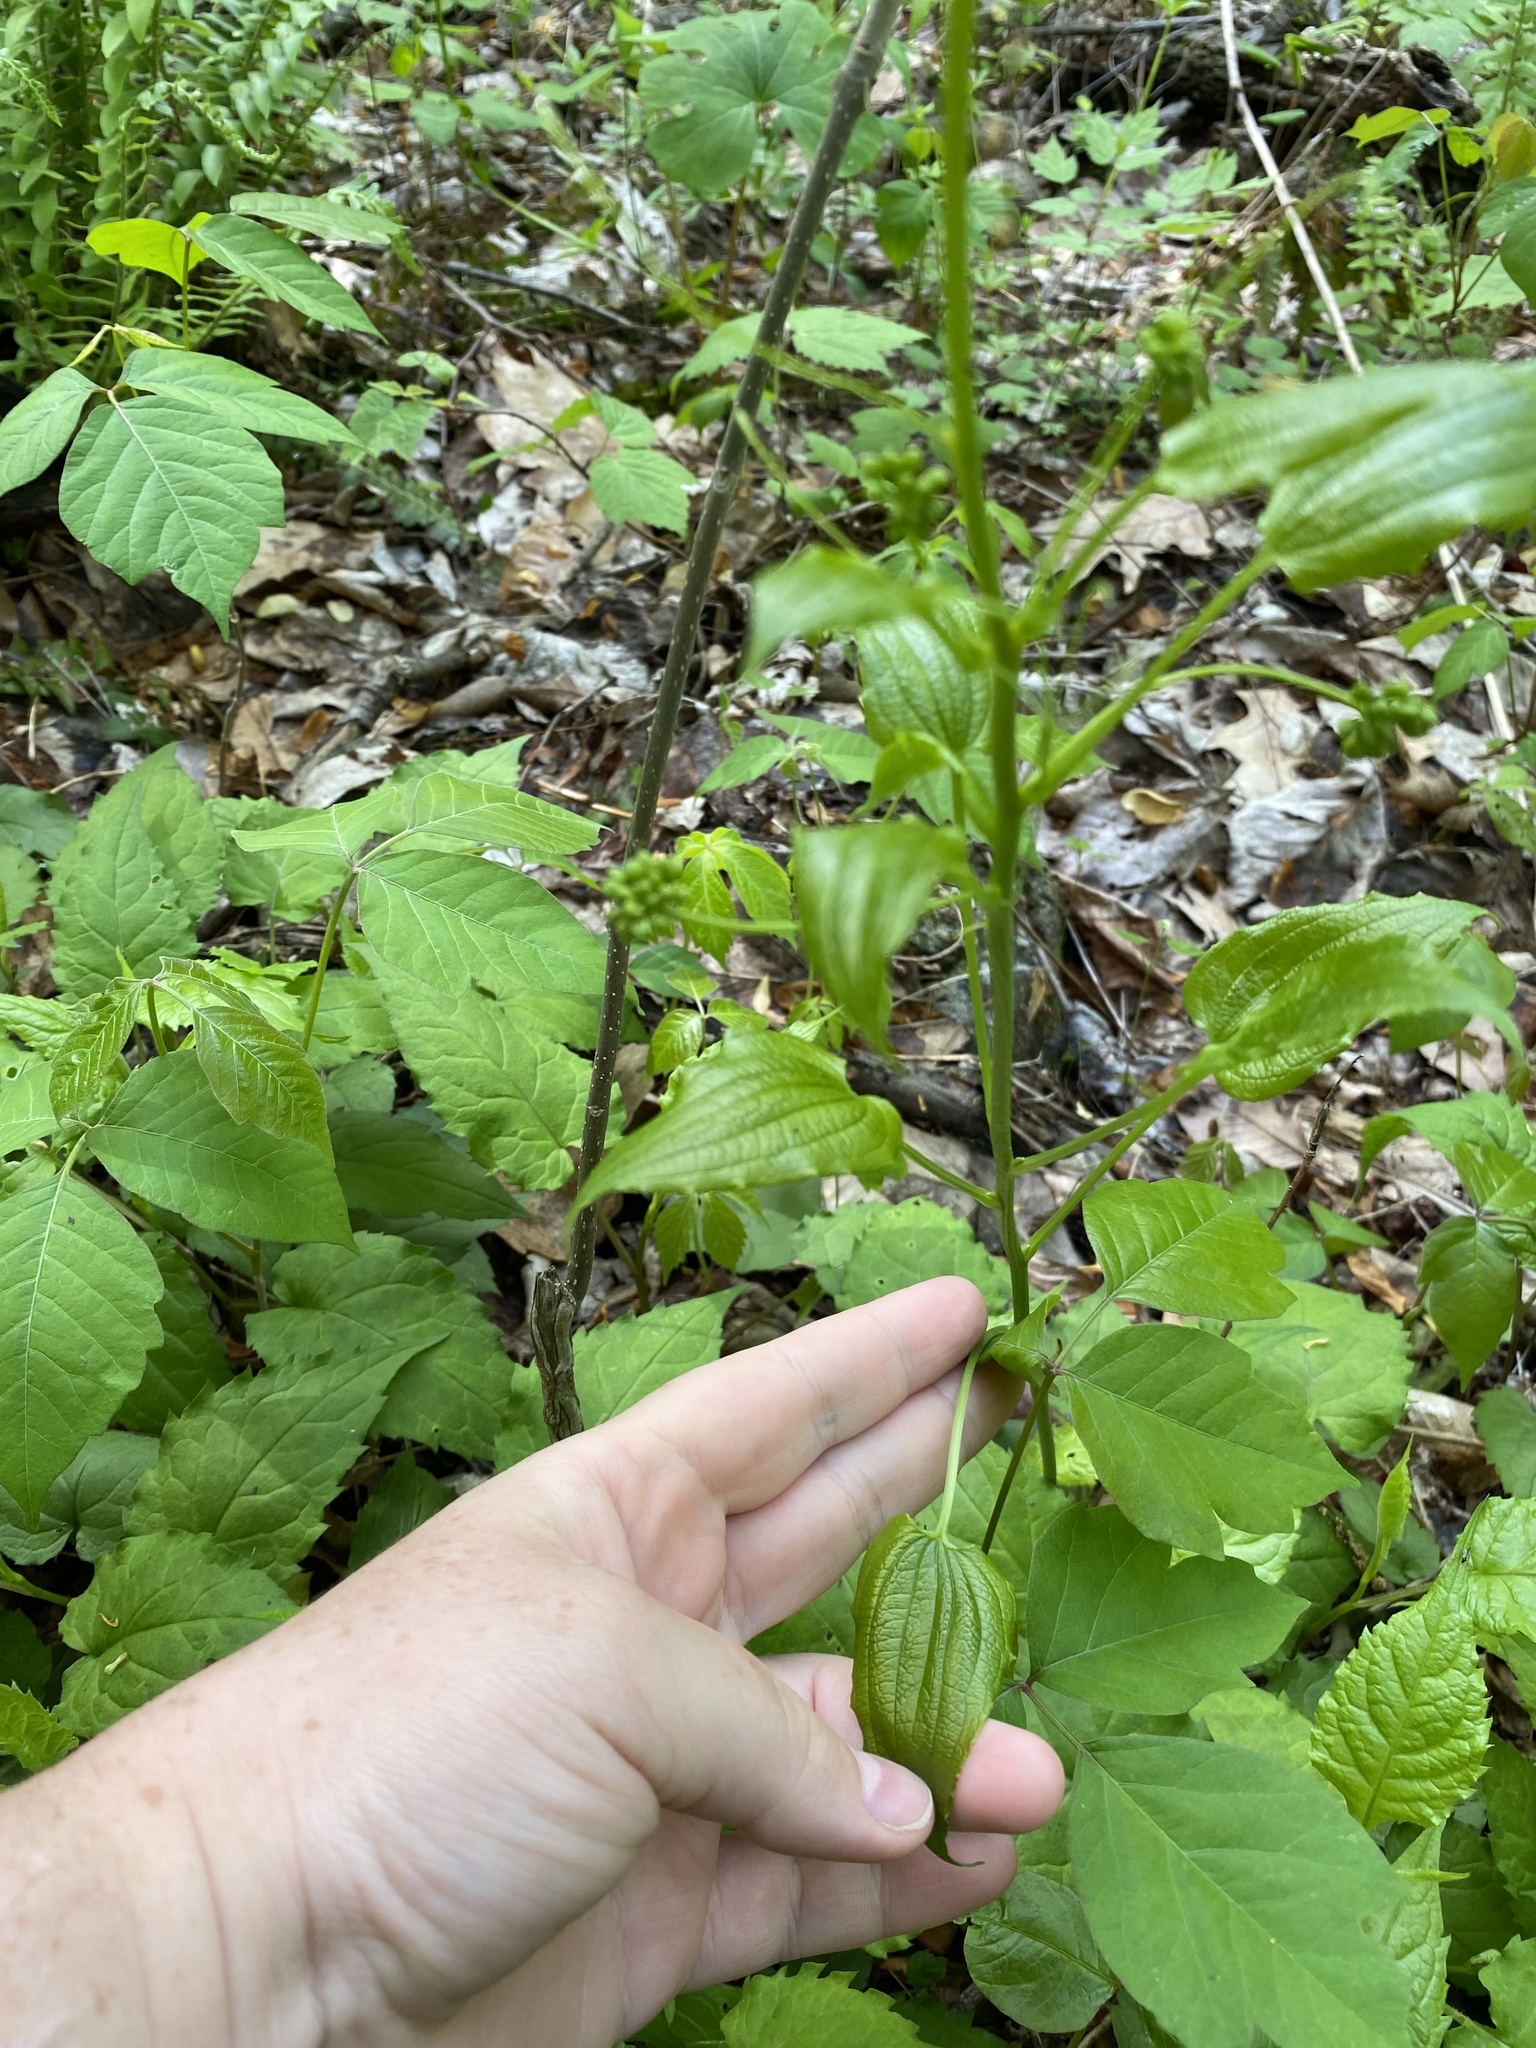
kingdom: Plantae
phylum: Tracheophyta
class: Liliopsida
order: Liliales
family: Smilacaceae
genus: Smilax
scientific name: Smilax pulverulenta
